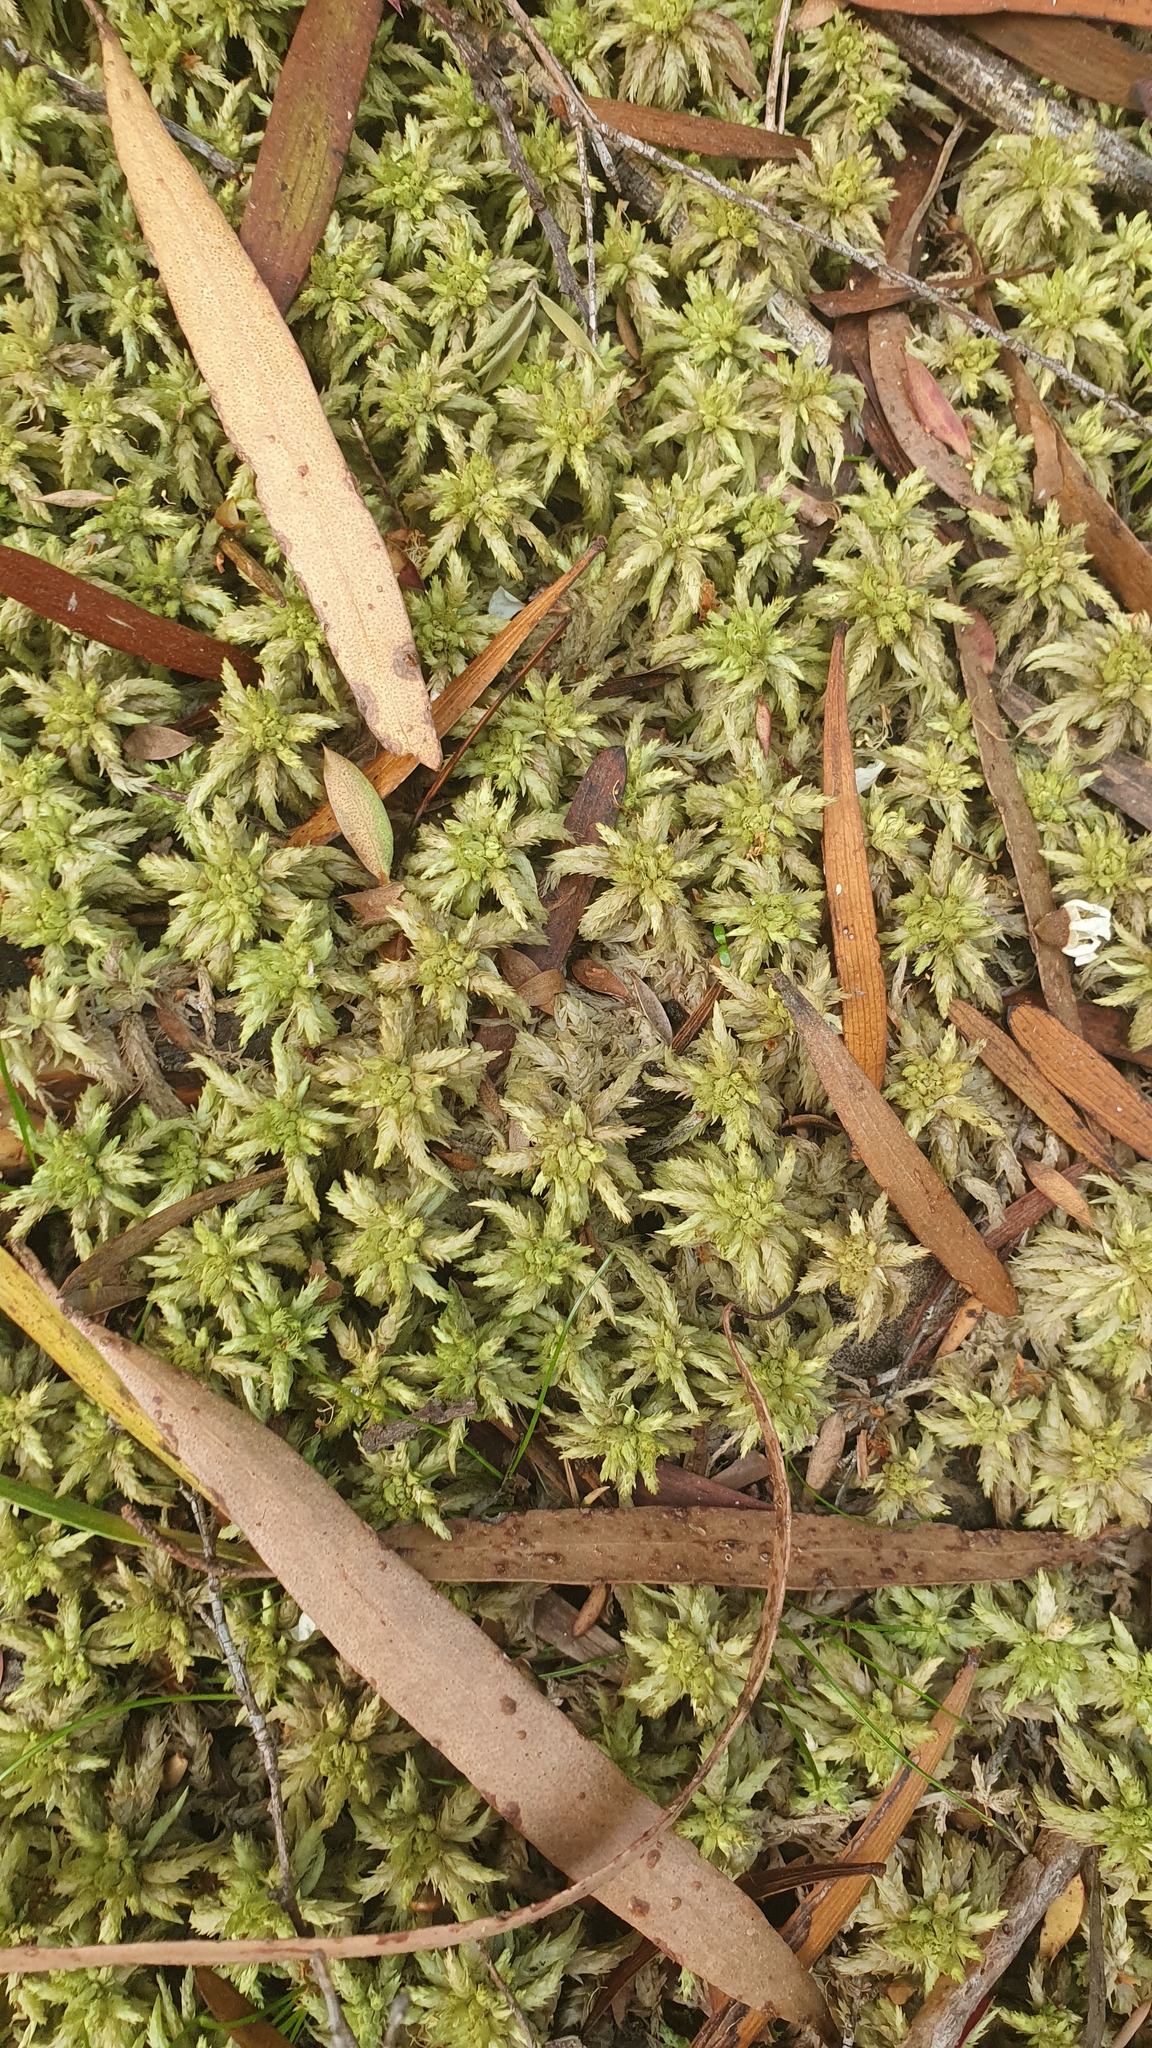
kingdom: Plantae
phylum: Bryophyta
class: Sphagnopsida
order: Sphagnales
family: Sphagnaceae
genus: Sphagnum
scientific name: Sphagnum cristatum
